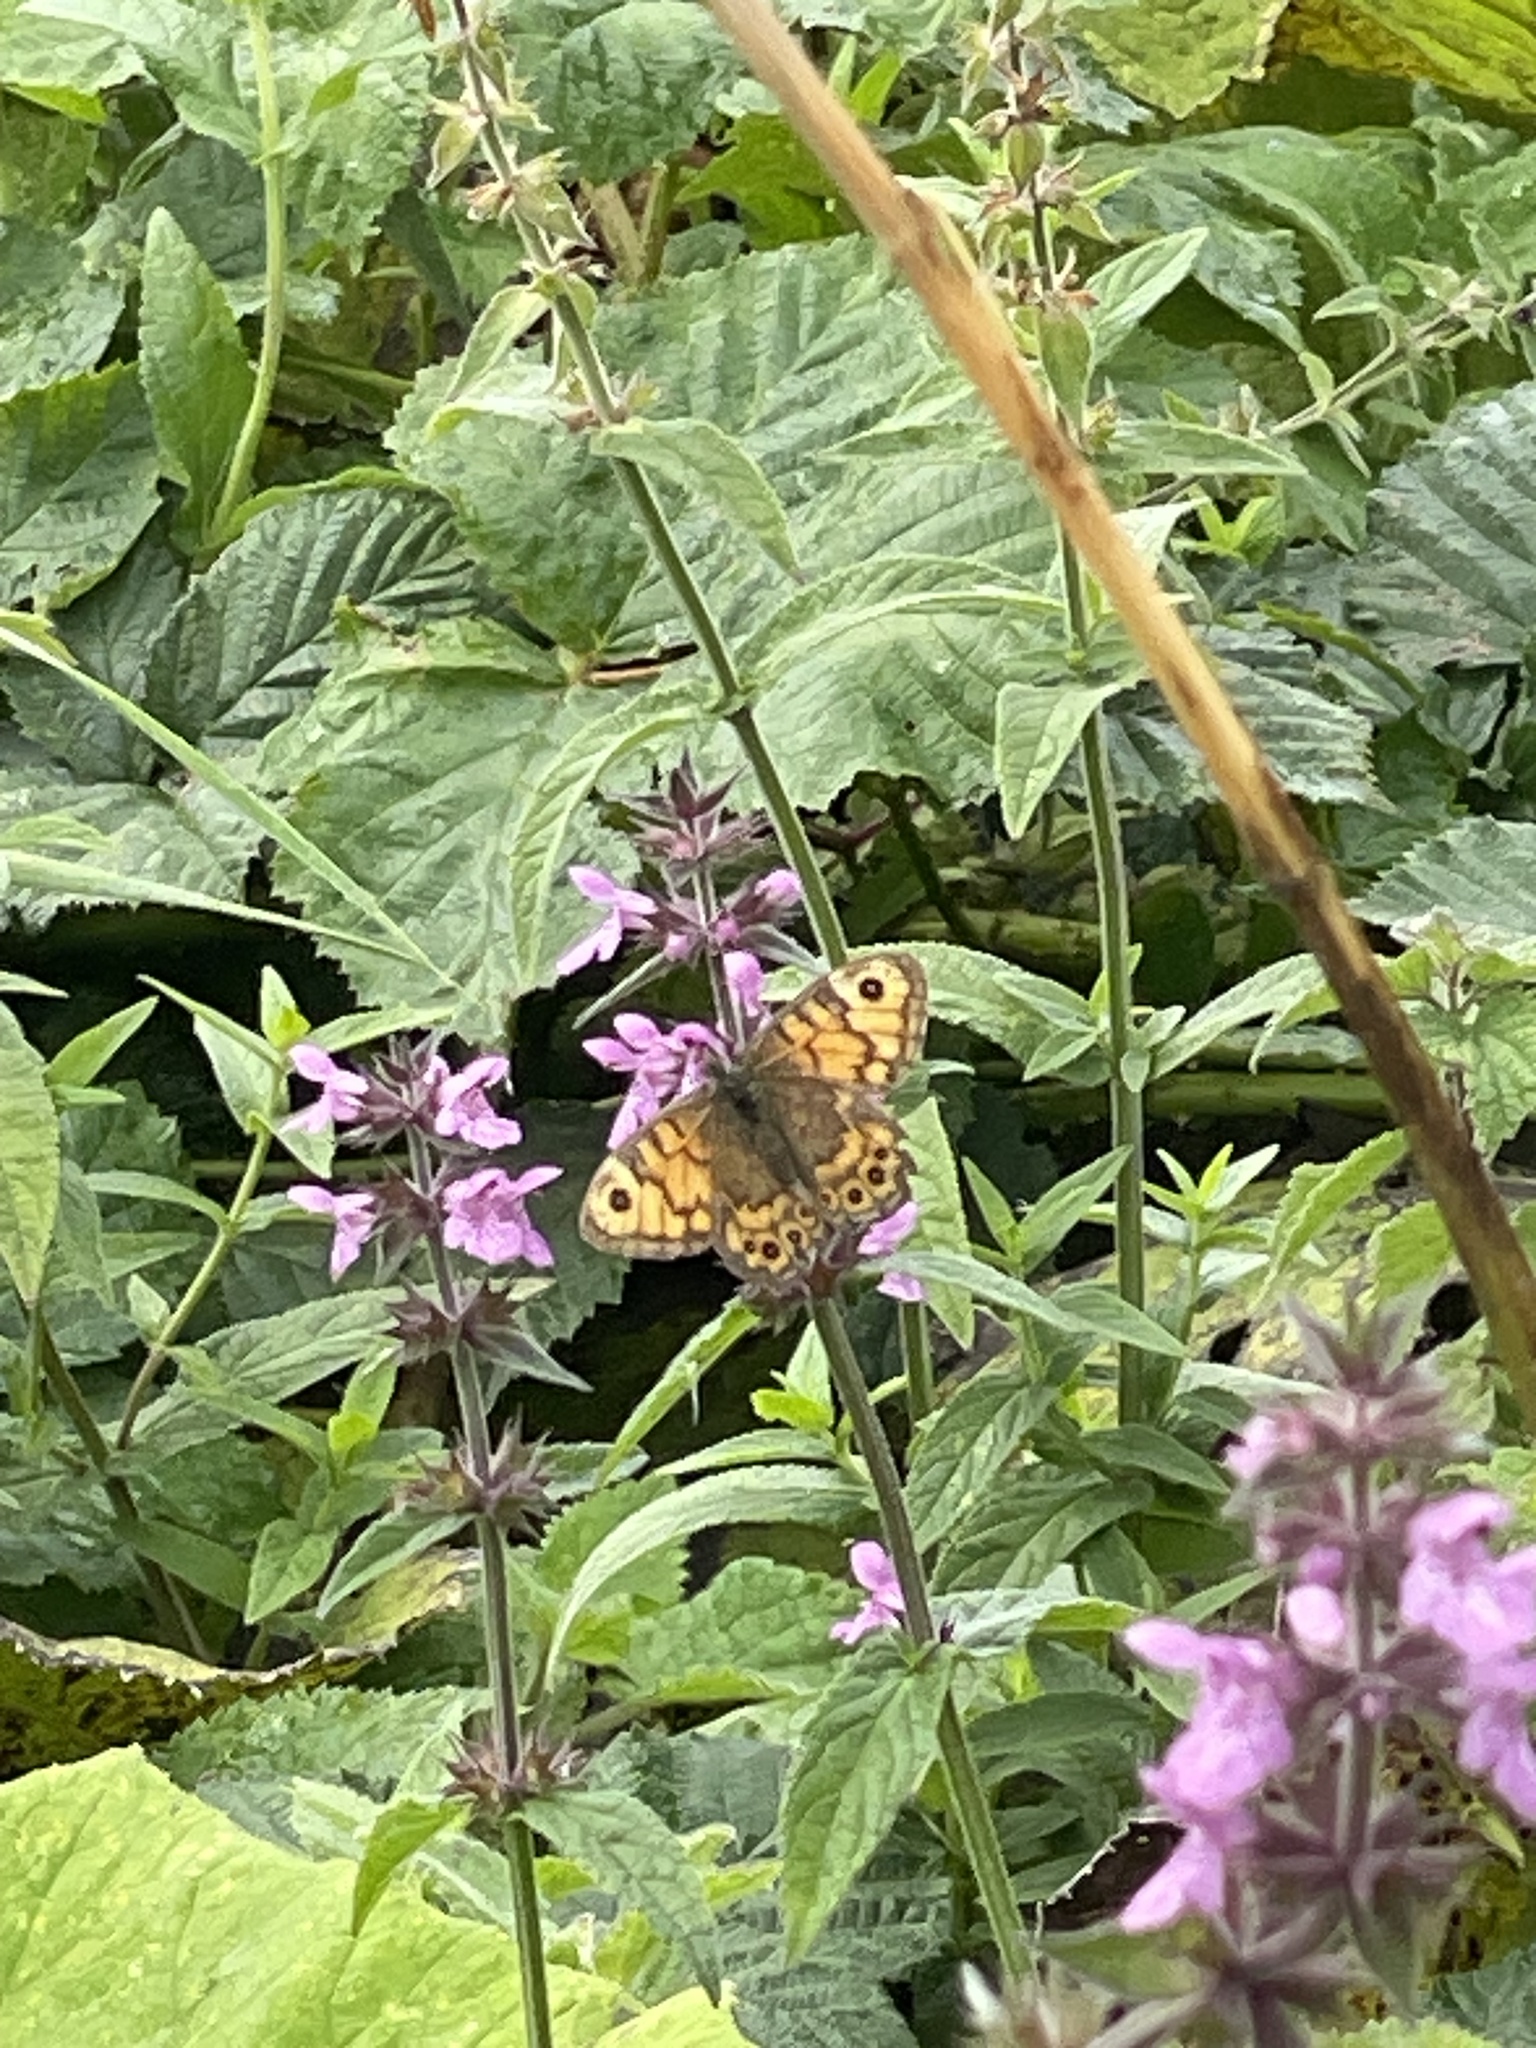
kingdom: Animalia
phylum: Arthropoda
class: Insecta
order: Lepidoptera
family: Nymphalidae
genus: Pararge
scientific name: Pararge Lasiommata megera
